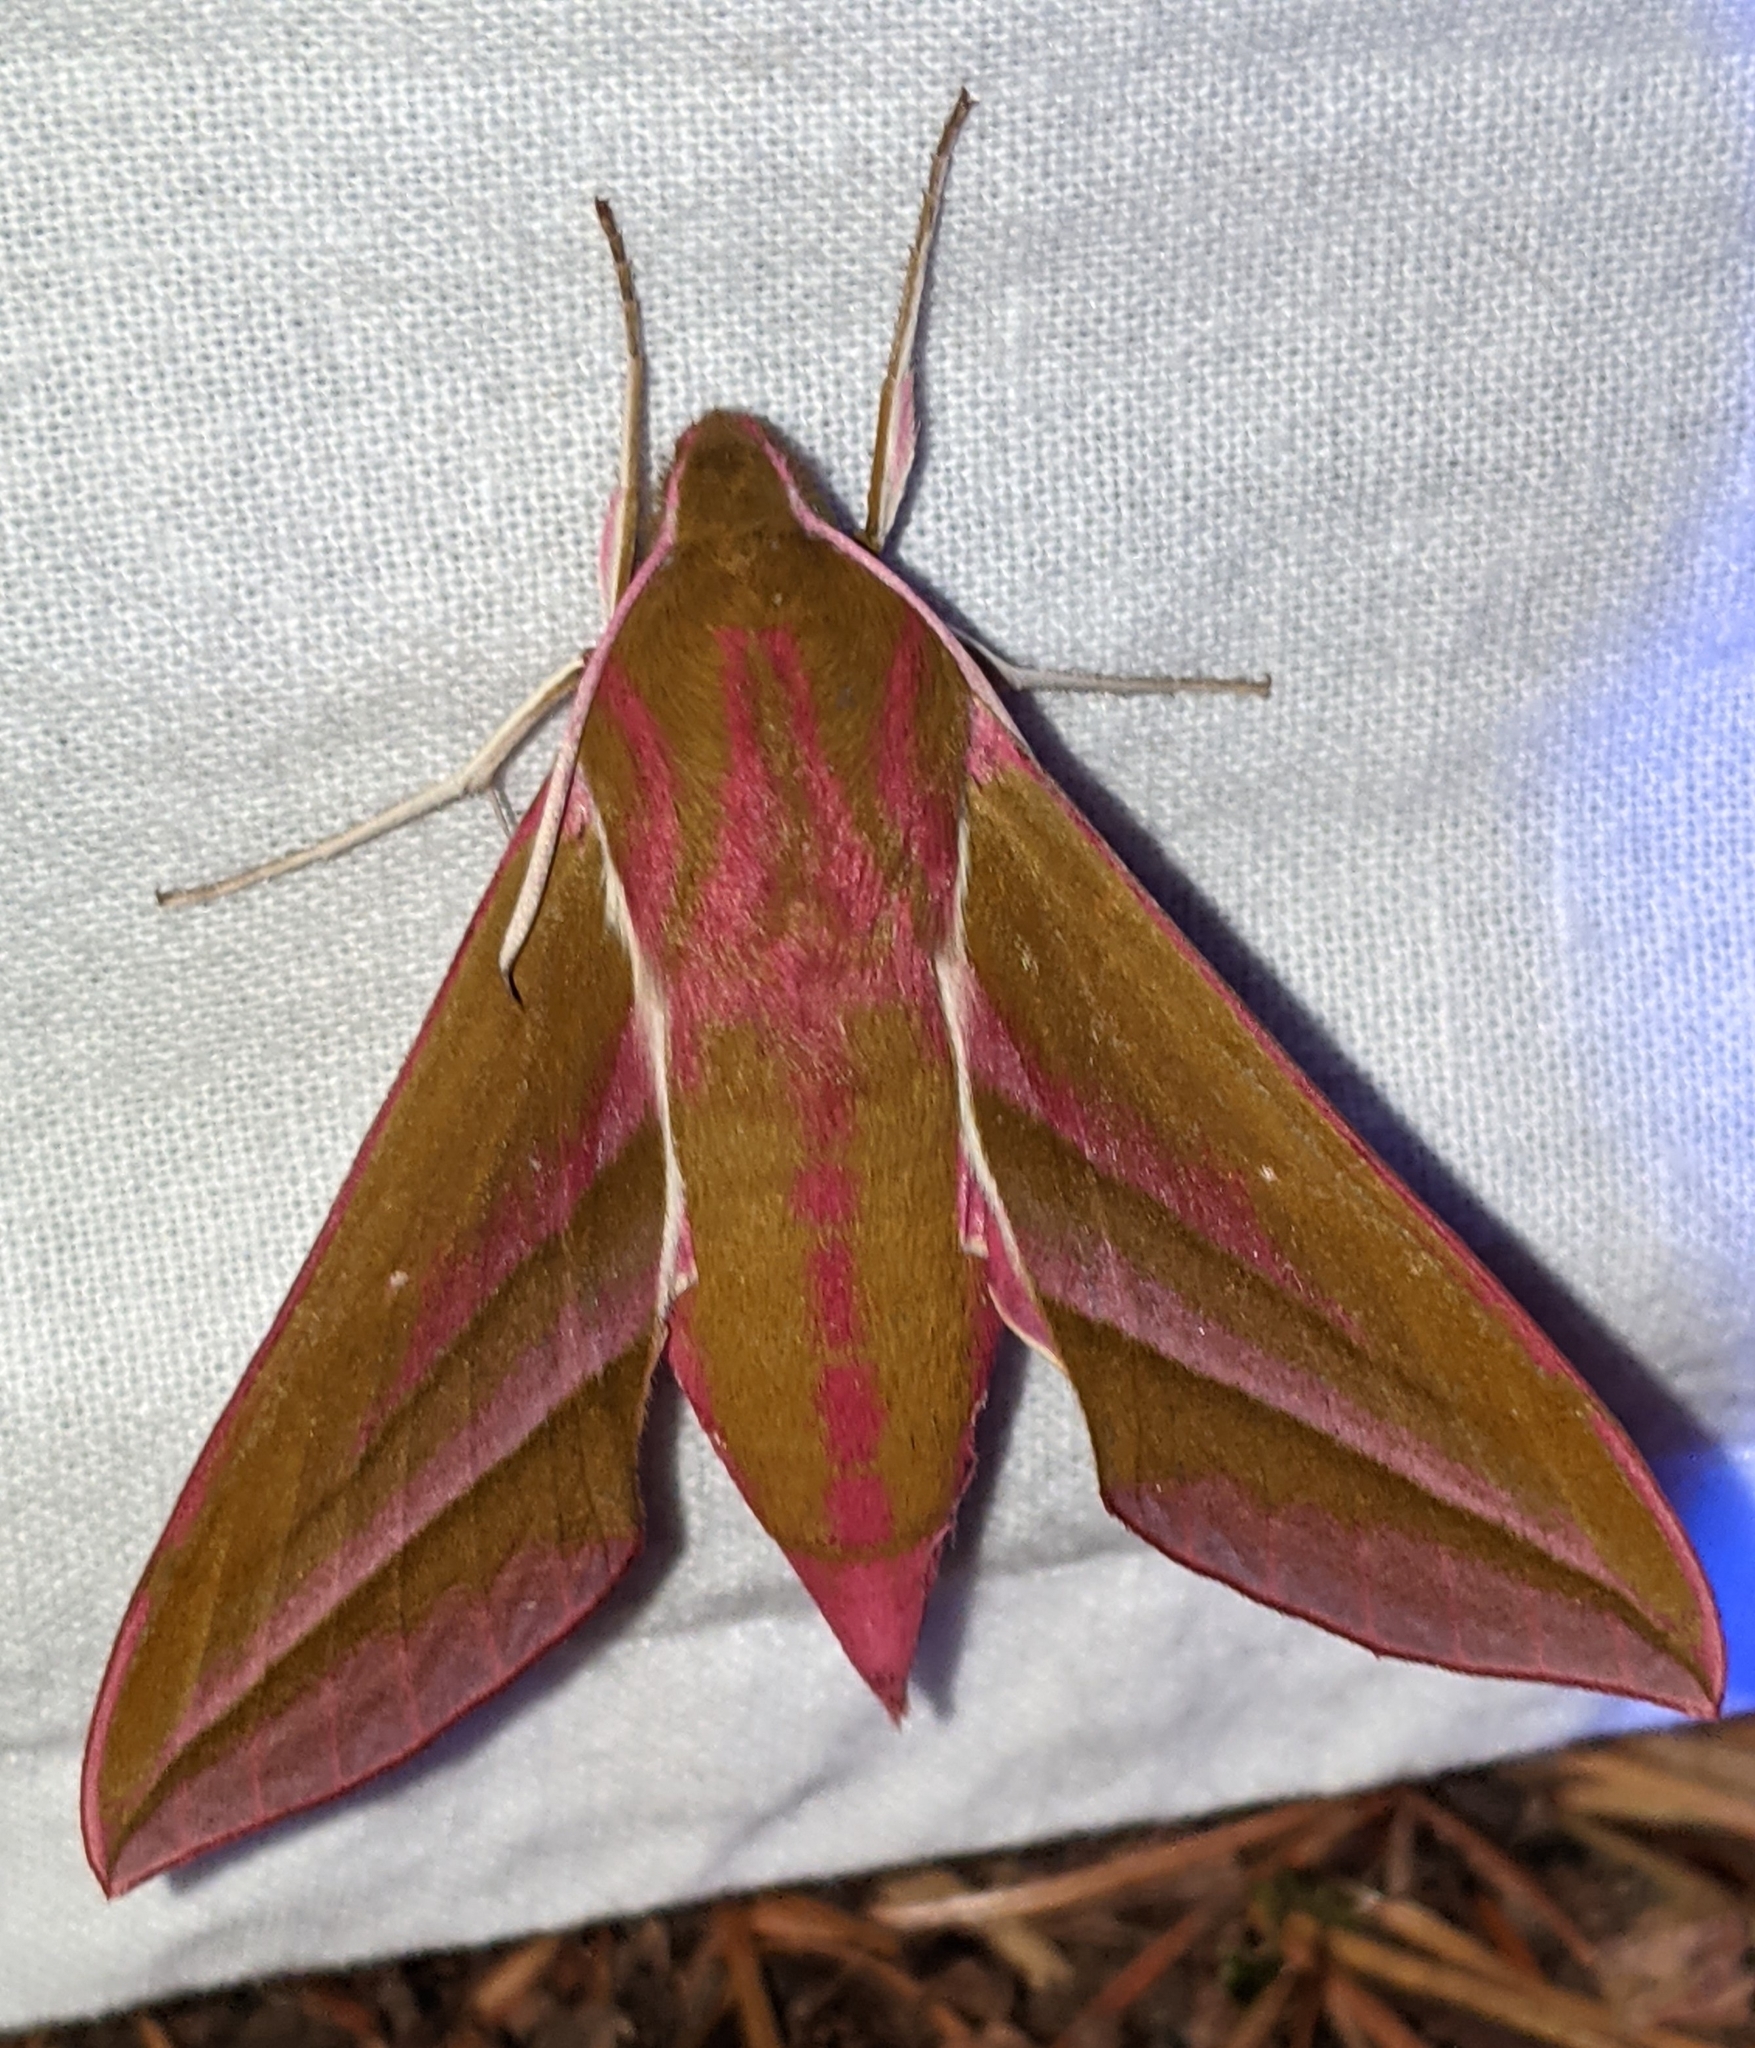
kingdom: Animalia
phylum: Arthropoda
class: Insecta
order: Lepidoptera
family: Sphingidae
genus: Deilephila
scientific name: Deilephila elpenor
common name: Elephant hawk-moth
